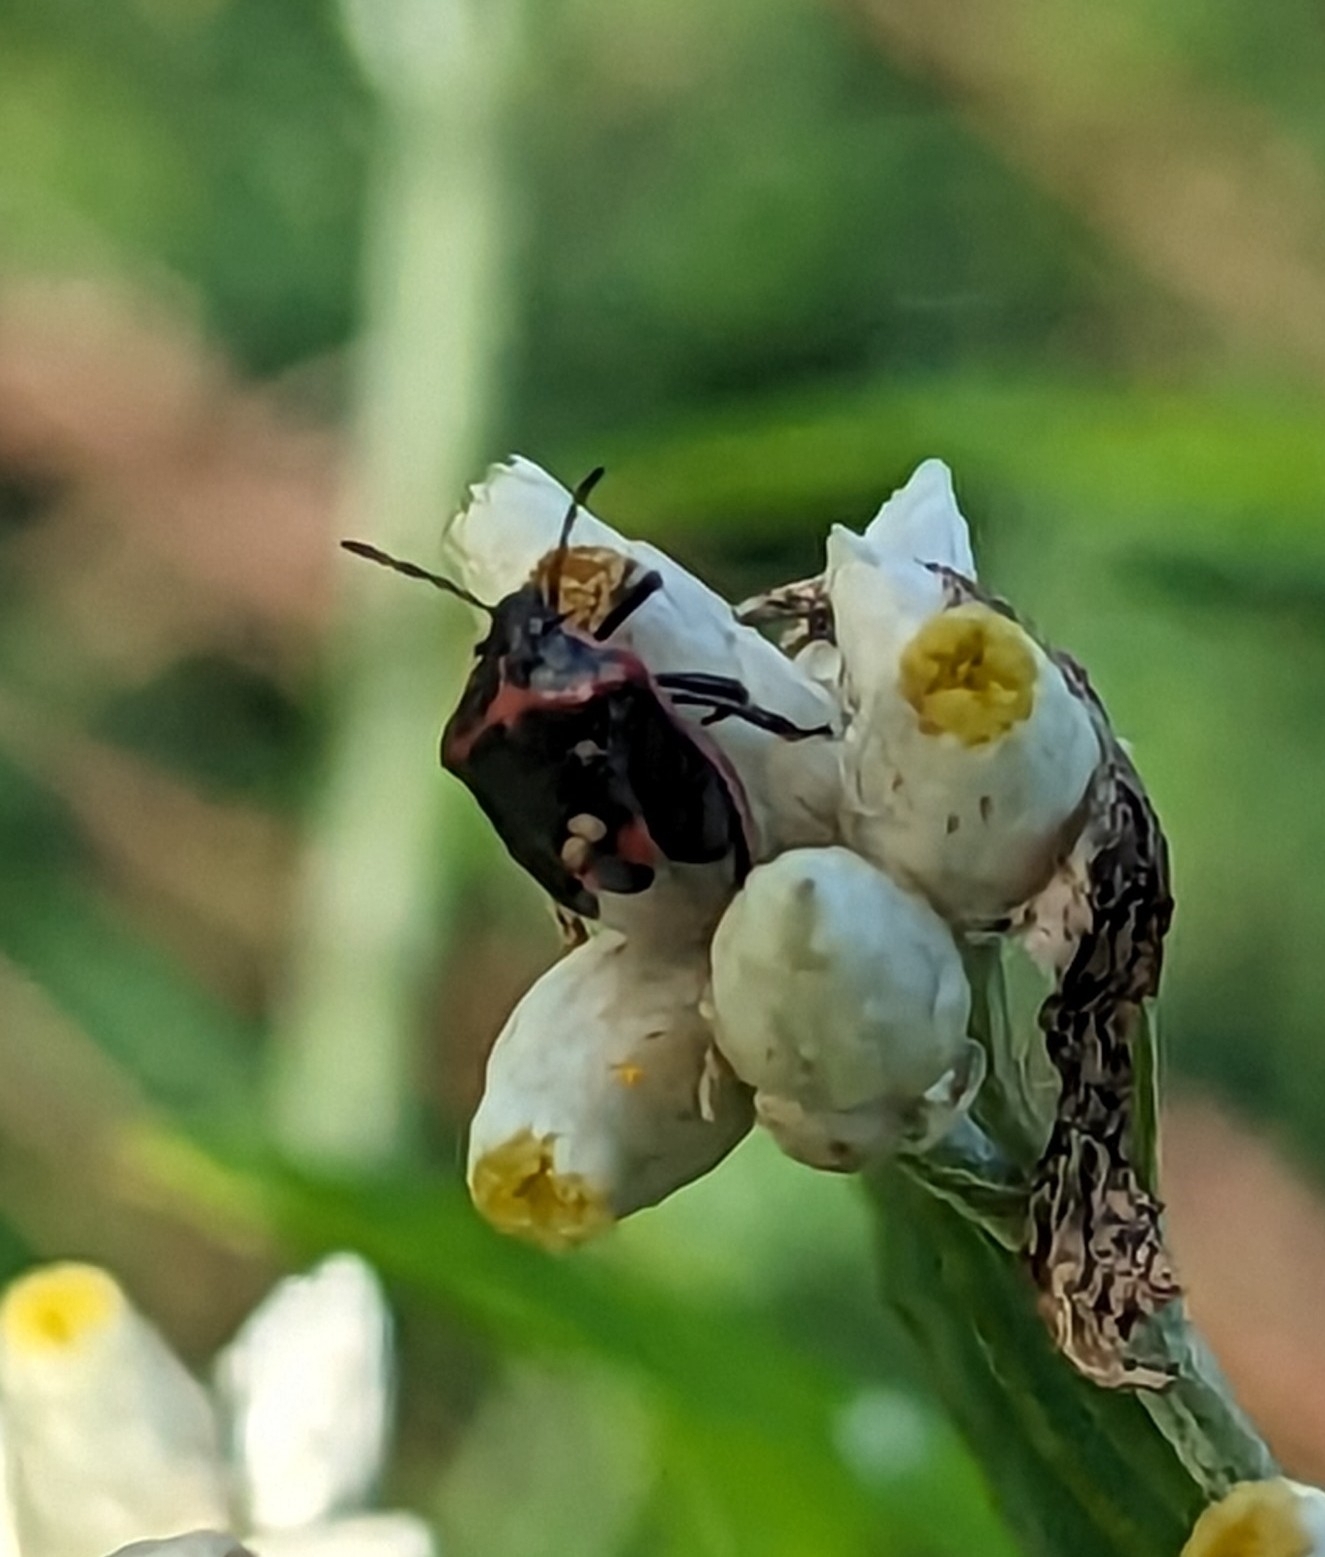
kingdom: Animalia
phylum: Arthropoda
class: Insecta
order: Hemiptera
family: Pentatomidae
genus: Cosmopepla
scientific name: Cosmopepla lintneriana
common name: Twice-stabbed stink bug
